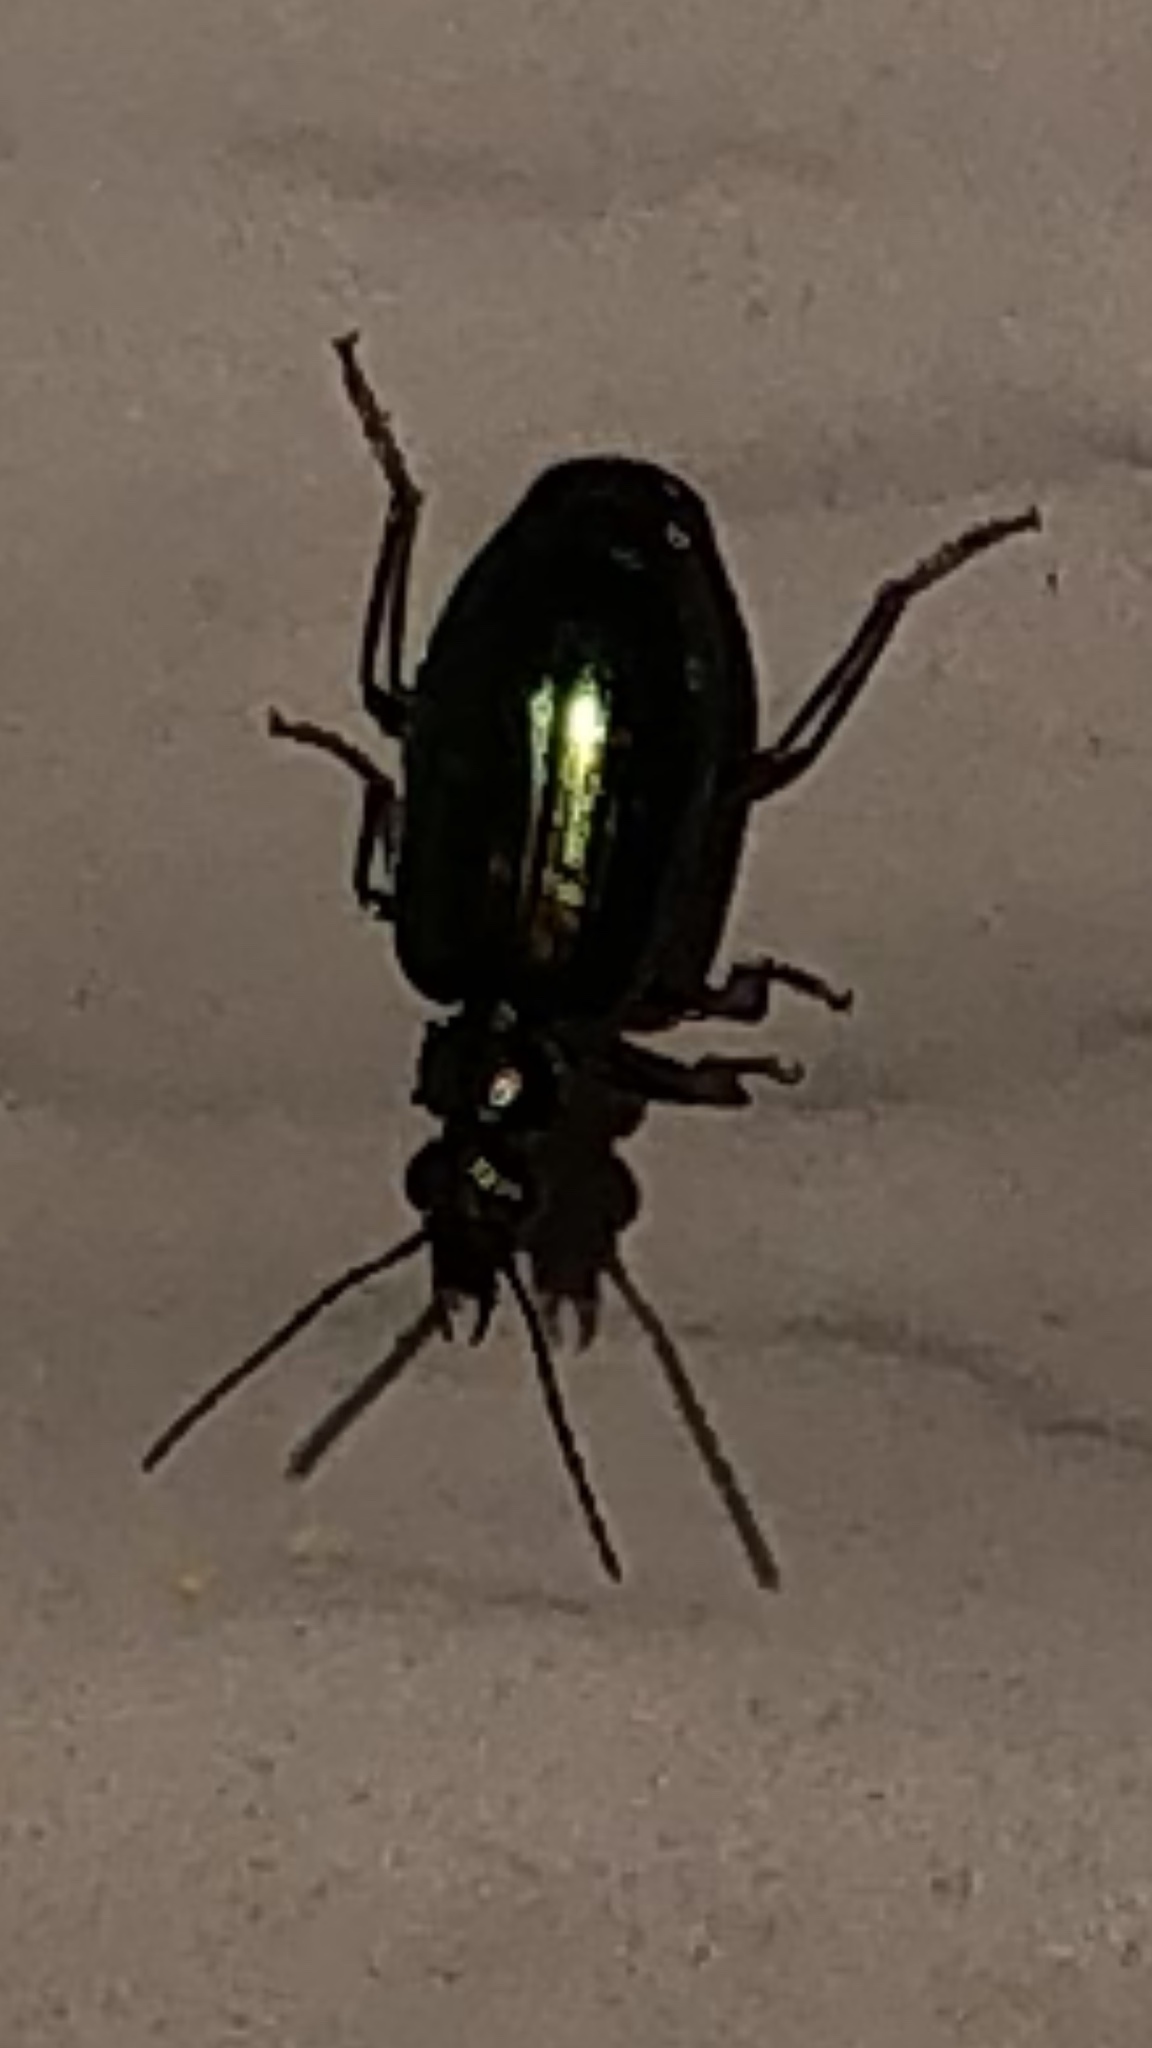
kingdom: Animalia
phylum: Arthropoda
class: Insecta
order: Coleoptera
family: Carabidae
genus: Lebia
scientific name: Lebia viridis
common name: Flower lebia beetle
